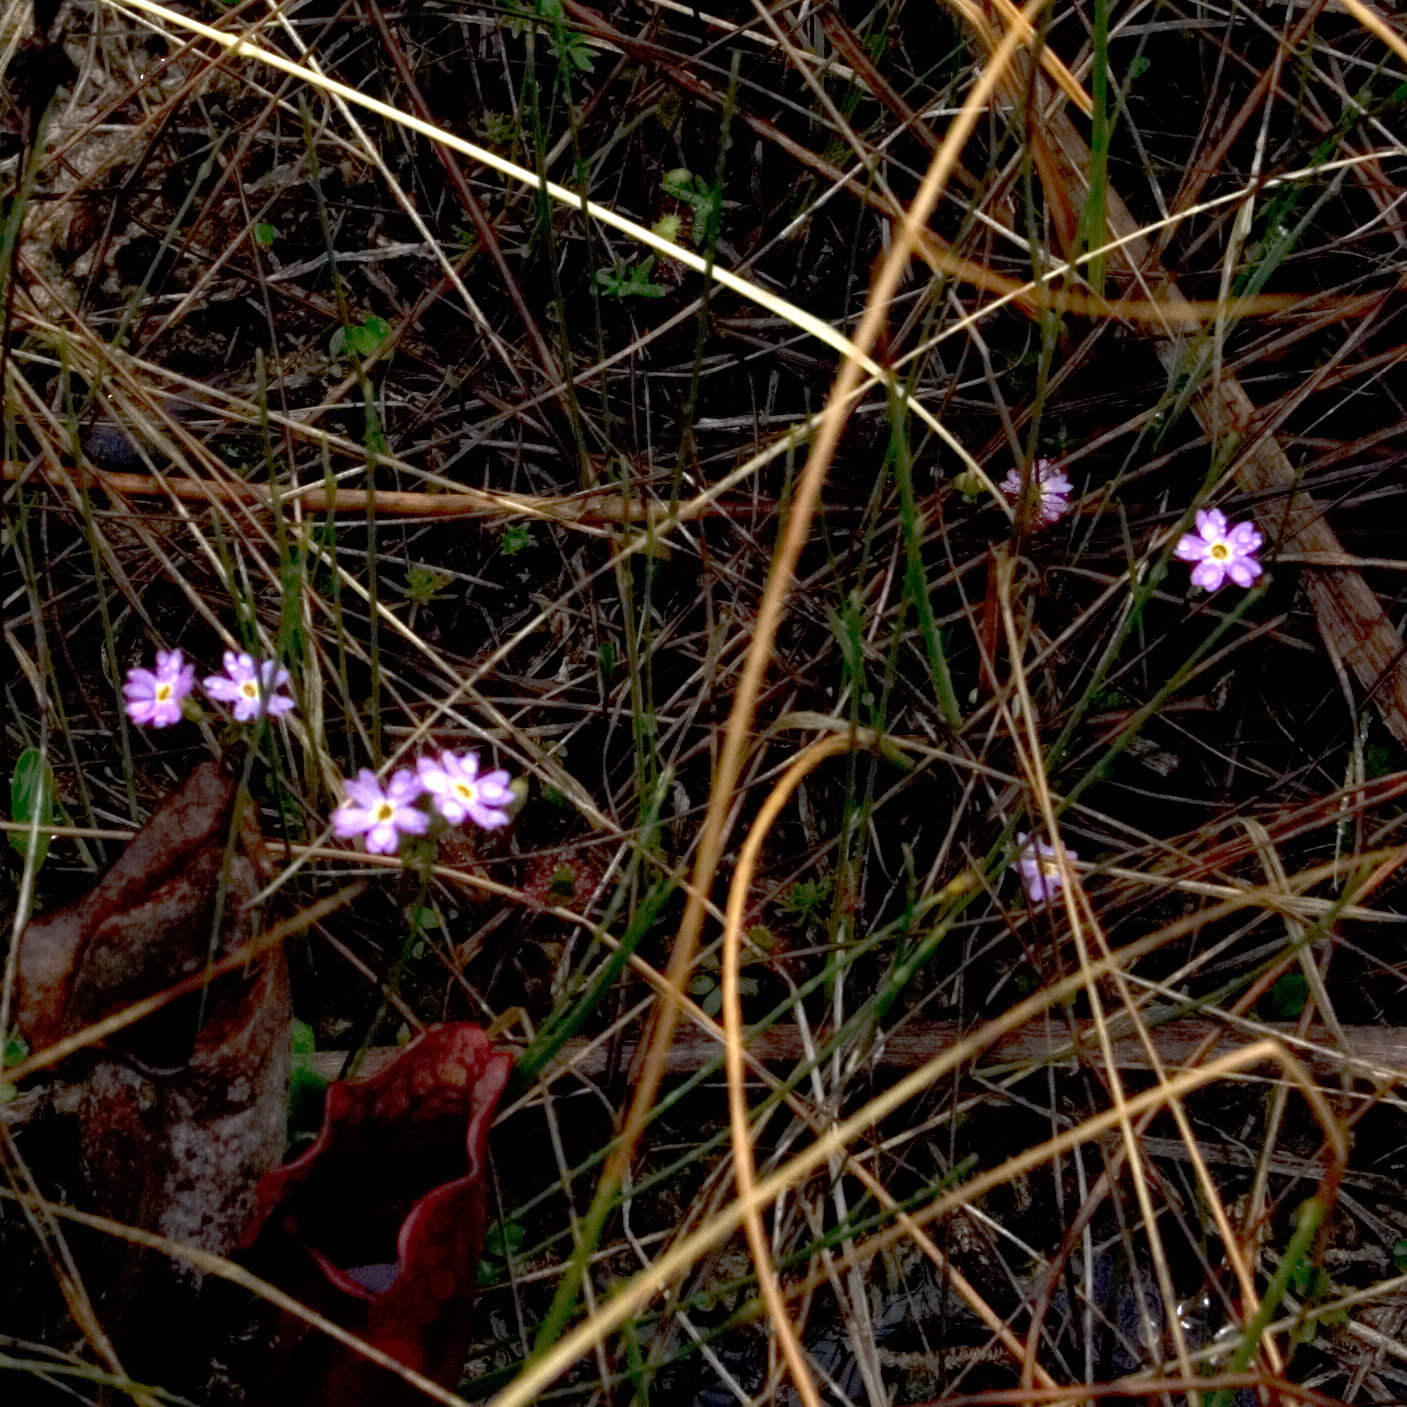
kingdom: Plantae
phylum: Tracheophyta
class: Magnoliopsida
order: Ericales
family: Primulaceae
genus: Primula
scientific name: Primula mistassinica
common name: Bird's-eye primrose
